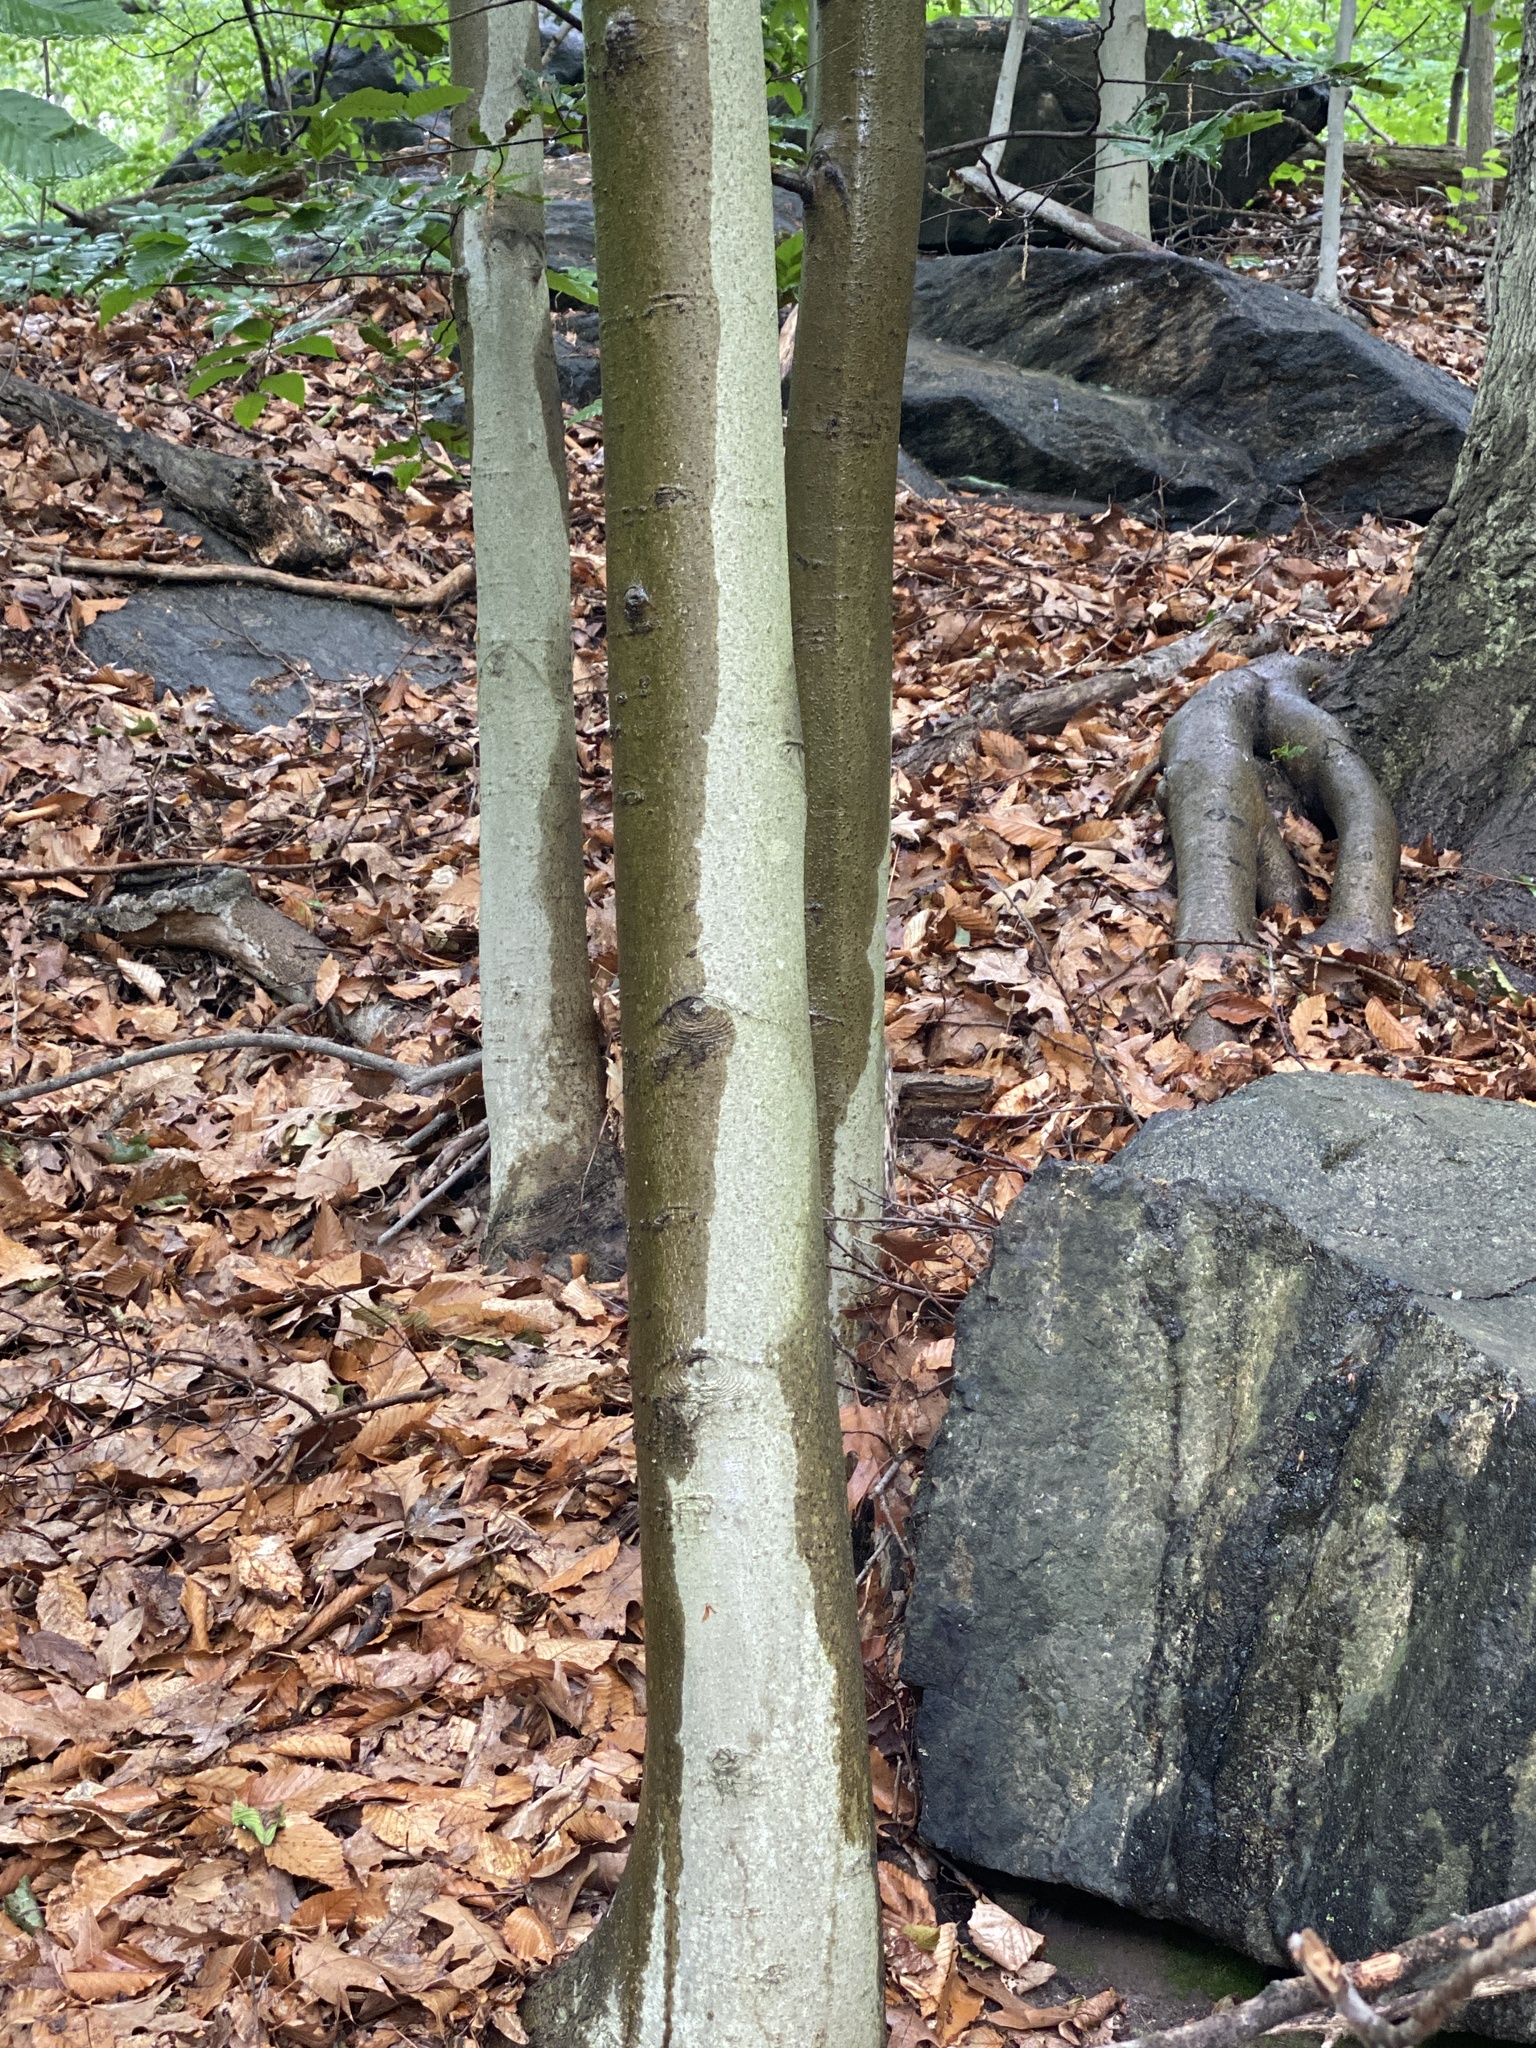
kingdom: Plantae
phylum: Tracheophyta
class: Magnoliopsida
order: Fagales
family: Fagaceae
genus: Fagus
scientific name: Fagus grandifolia
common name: American beech
